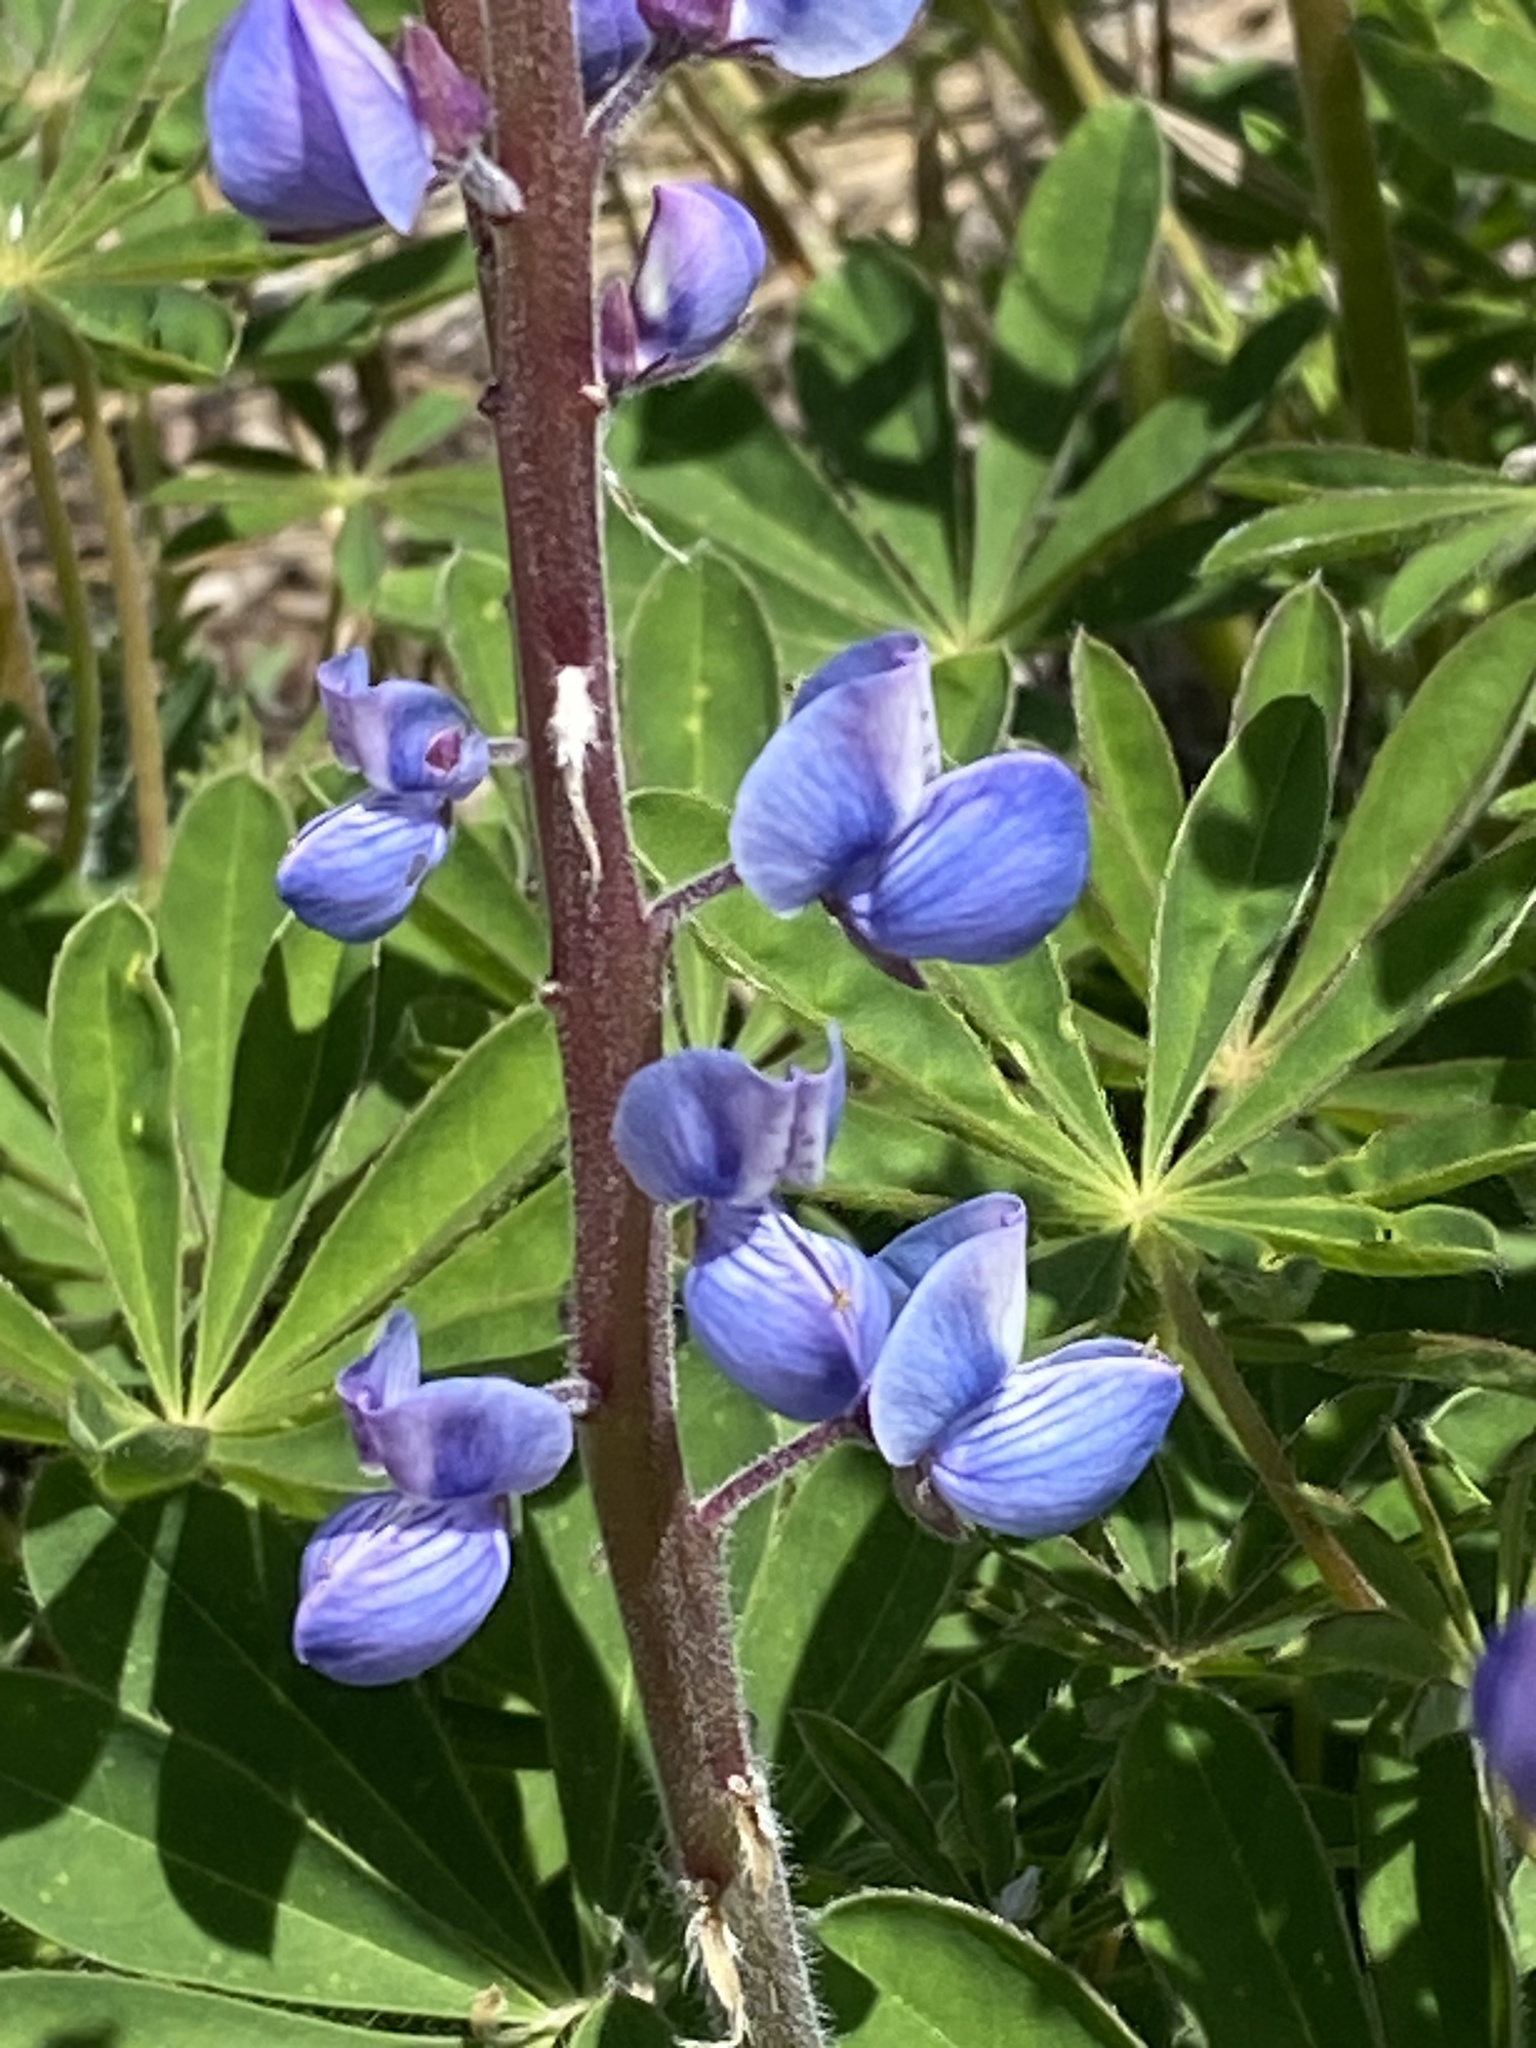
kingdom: Plantae
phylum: Tracheophyta
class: Magnoliopsida
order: Fabales
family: Fabaceae
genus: Lupinus
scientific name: Lupinus perennis
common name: Sundial lupine
